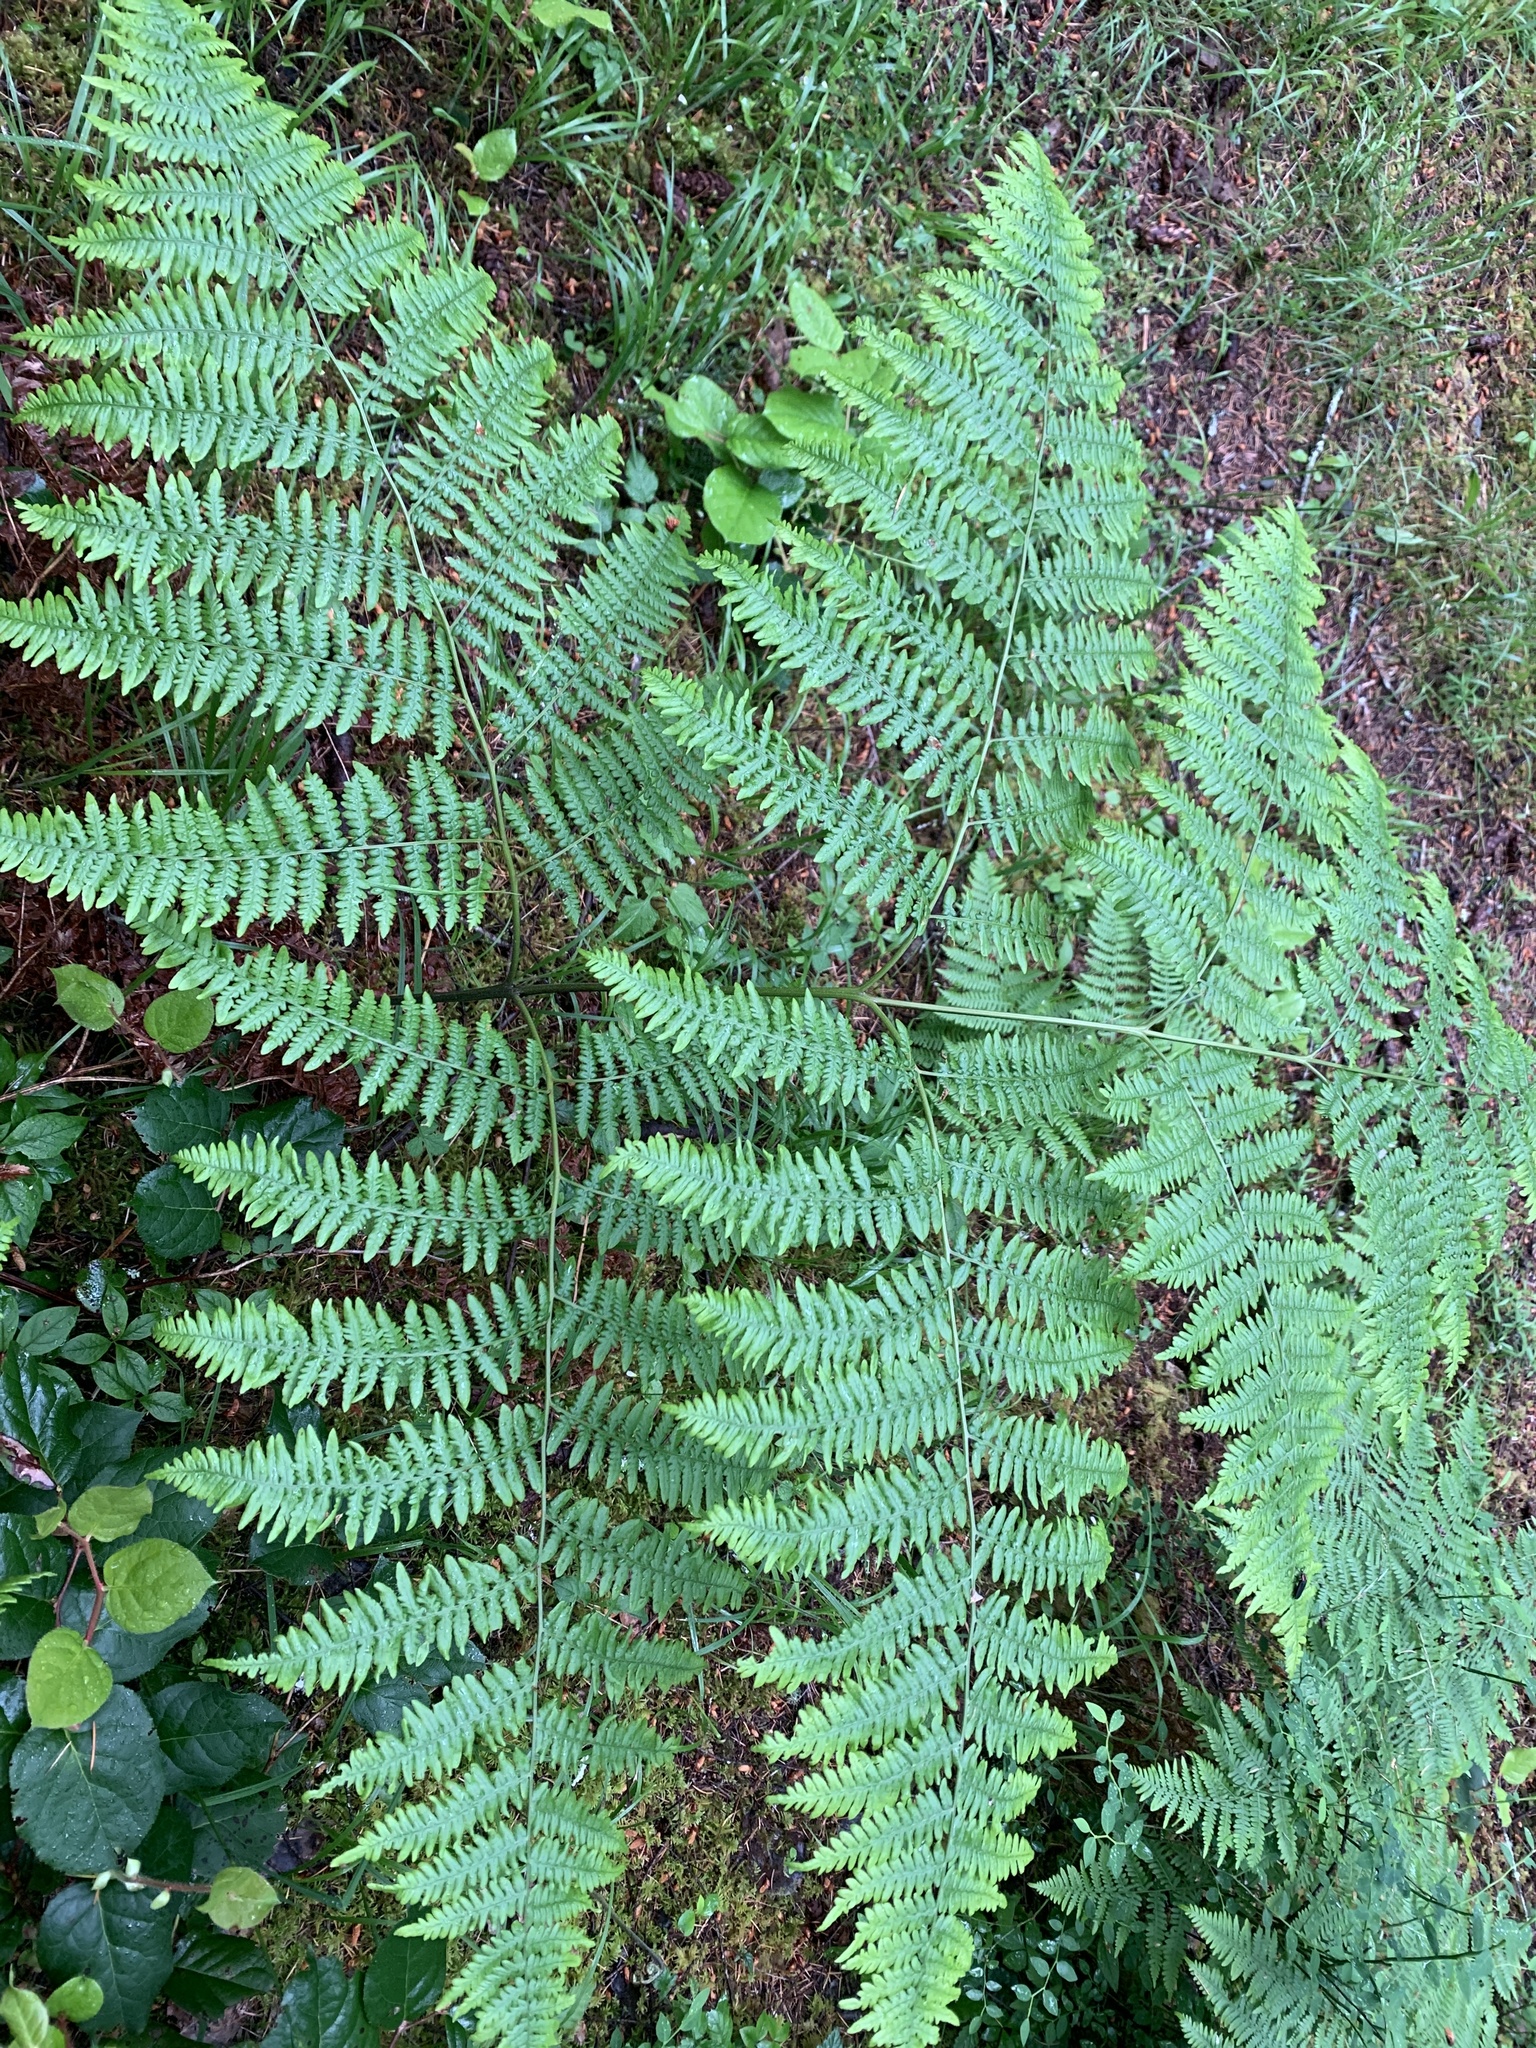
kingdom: Plantae
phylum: Tracheophyta
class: Polypodiopsida
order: Polypodiales
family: Dennstaedtiaceae
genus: Pteridium
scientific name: Pteridium aquilinum
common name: Bracken
